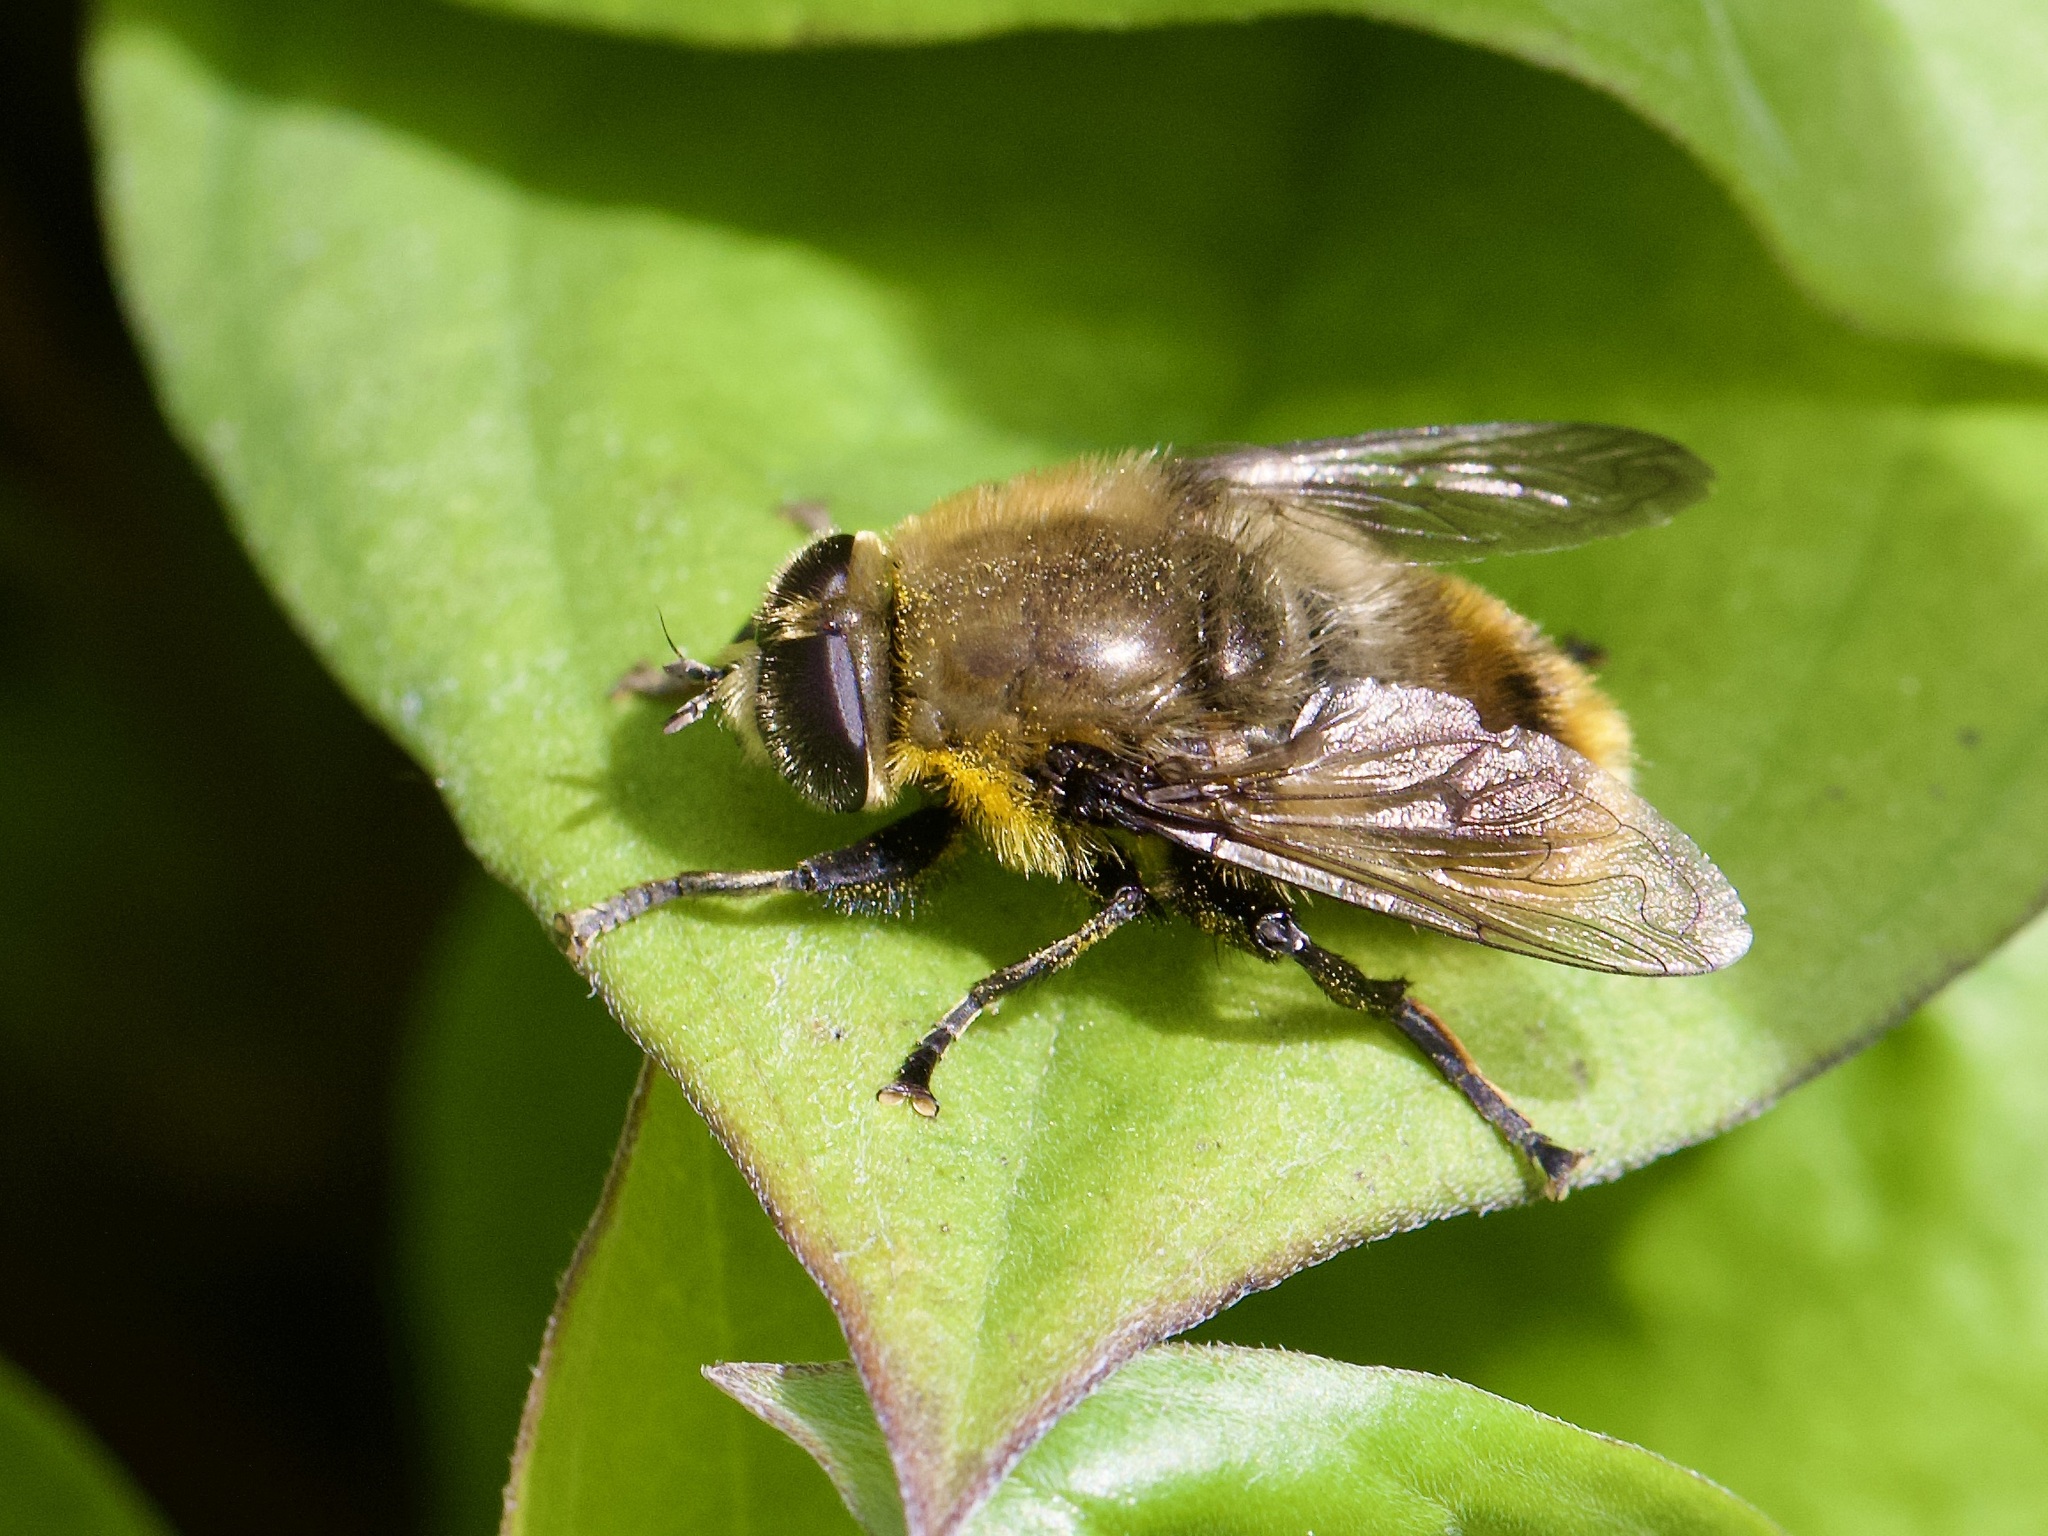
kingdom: Animalia
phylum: Arthropoda
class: Insecta
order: Diptera
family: Syrphidae
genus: Merodon
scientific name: Merodon equestris
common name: Greater bulb-fly
